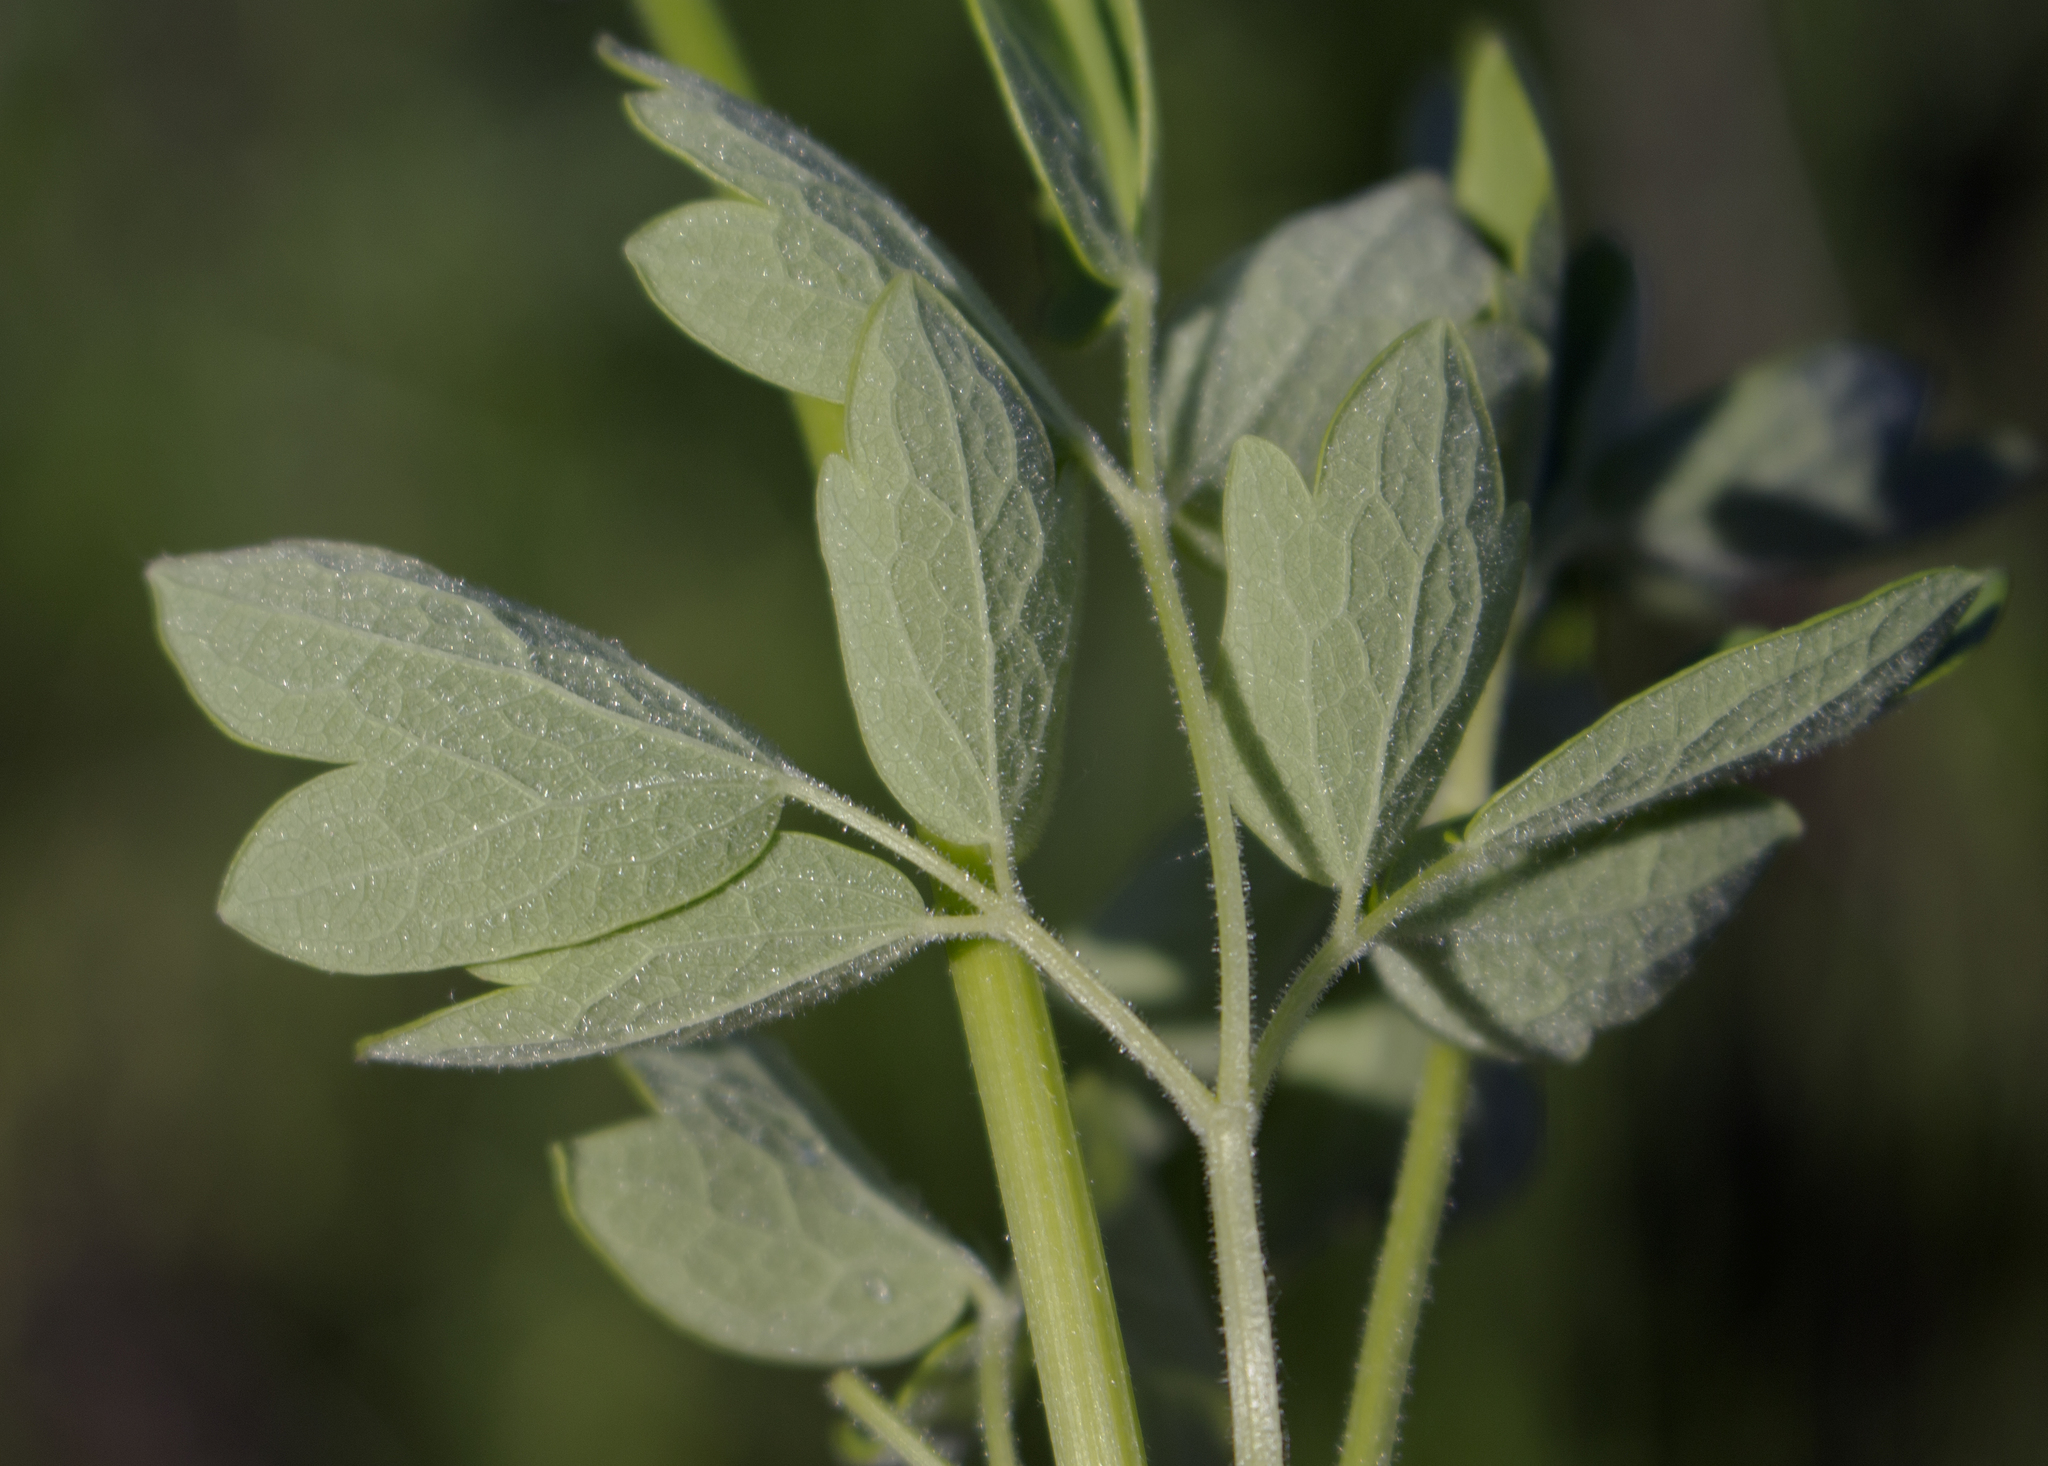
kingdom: Plantae
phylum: Tracheophyta
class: Magnoliopsida
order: Ranunculales
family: Ranunculaceae
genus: Thalictrum
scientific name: Thalictrum dasycarpum
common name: Purple meadow-rue
